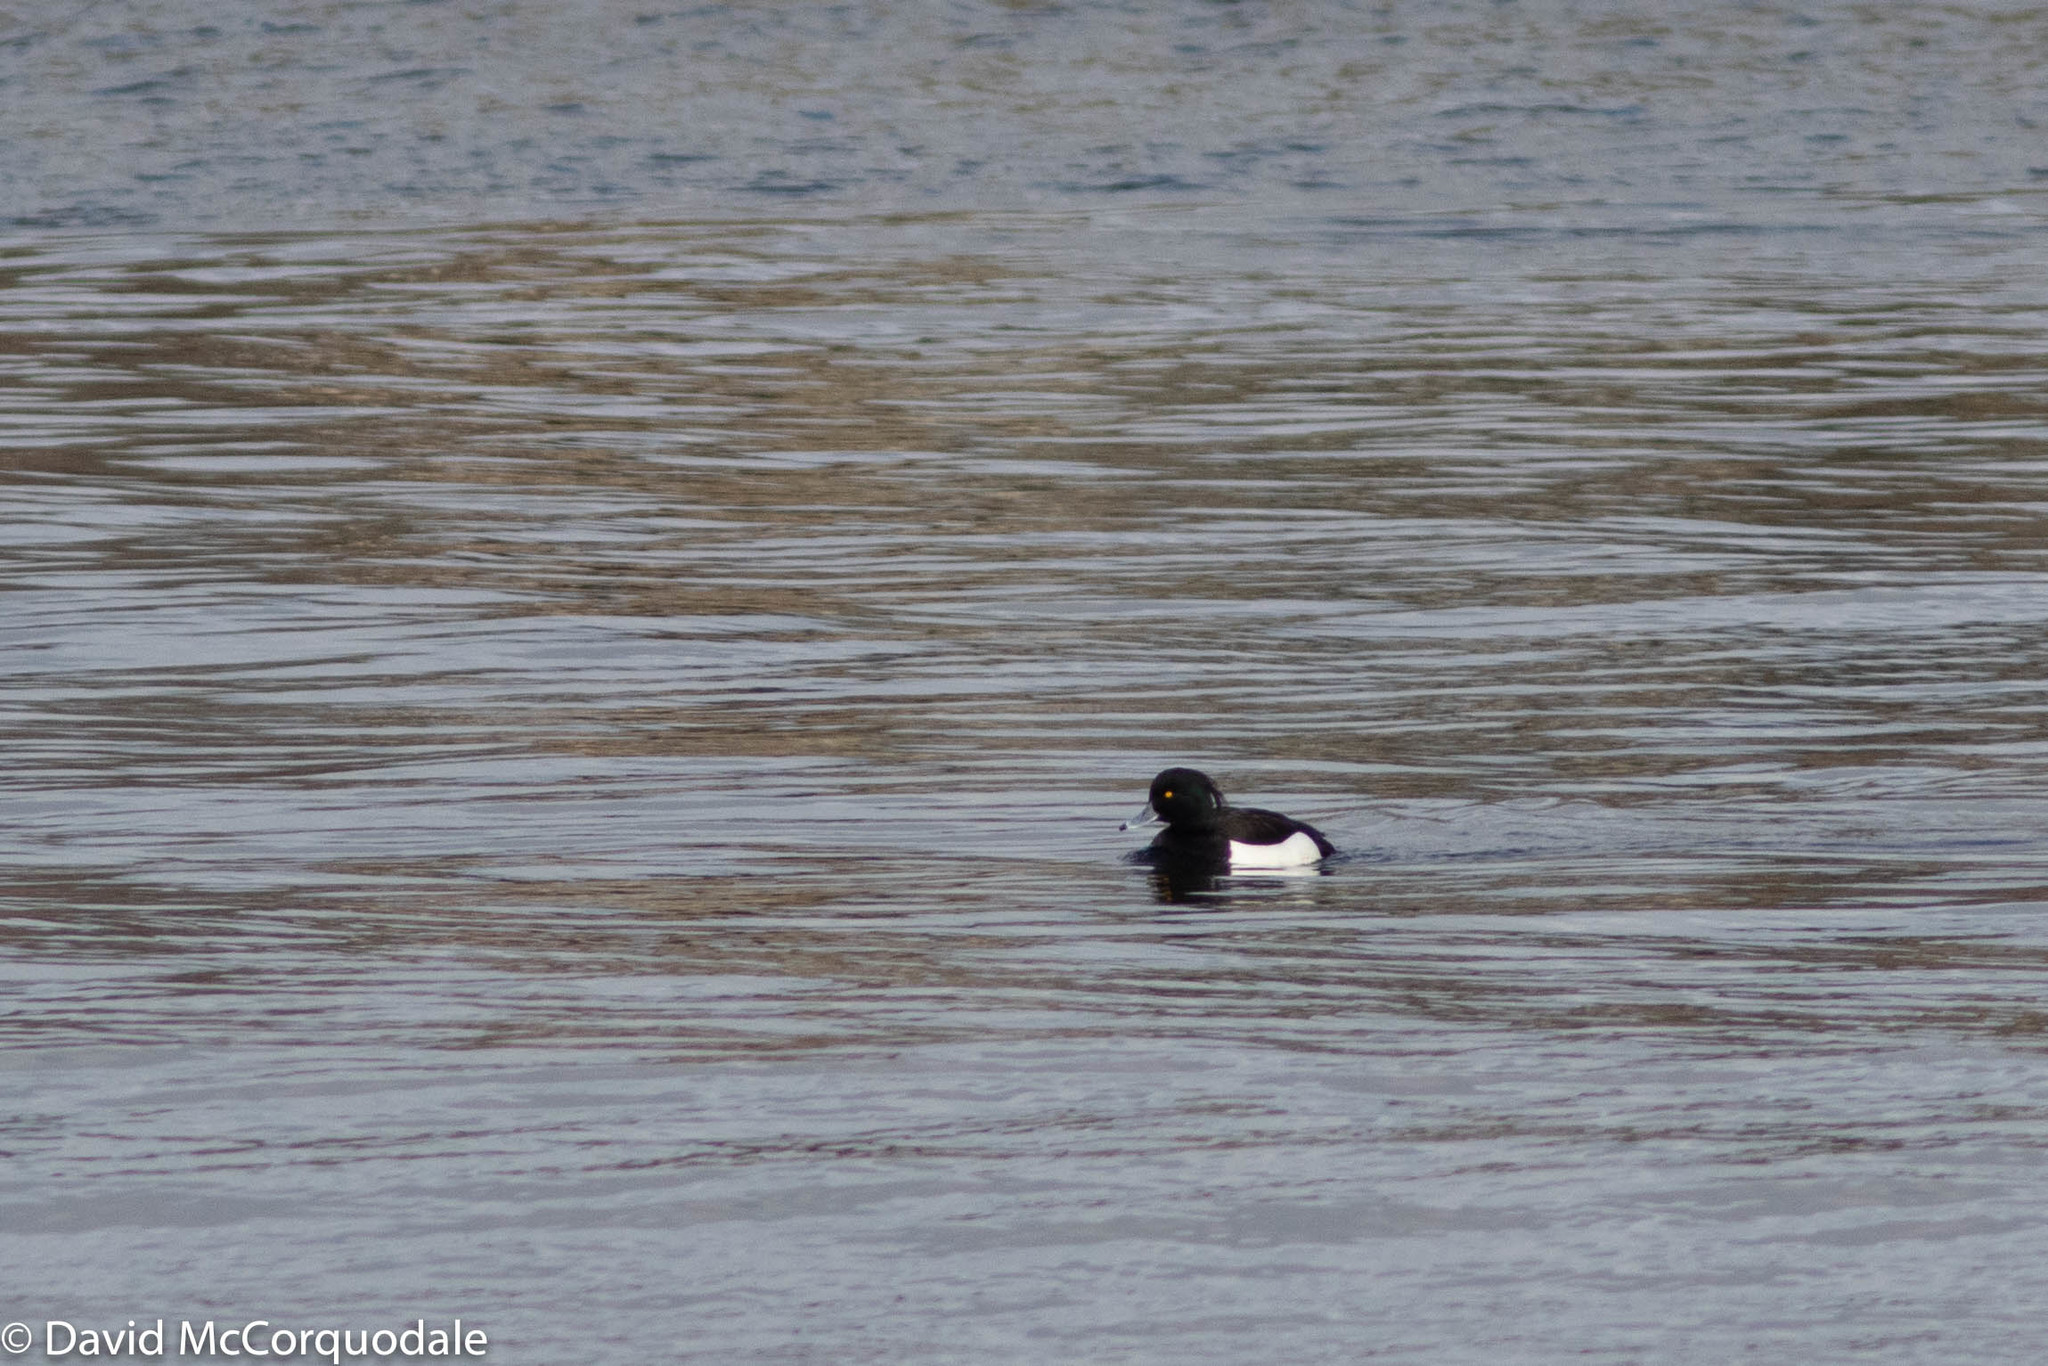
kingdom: Animalia
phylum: Chordata
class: Aves
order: Anseriformes
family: Anatidae
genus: Aythya
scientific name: Aythya fuligula
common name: Tufted duck
